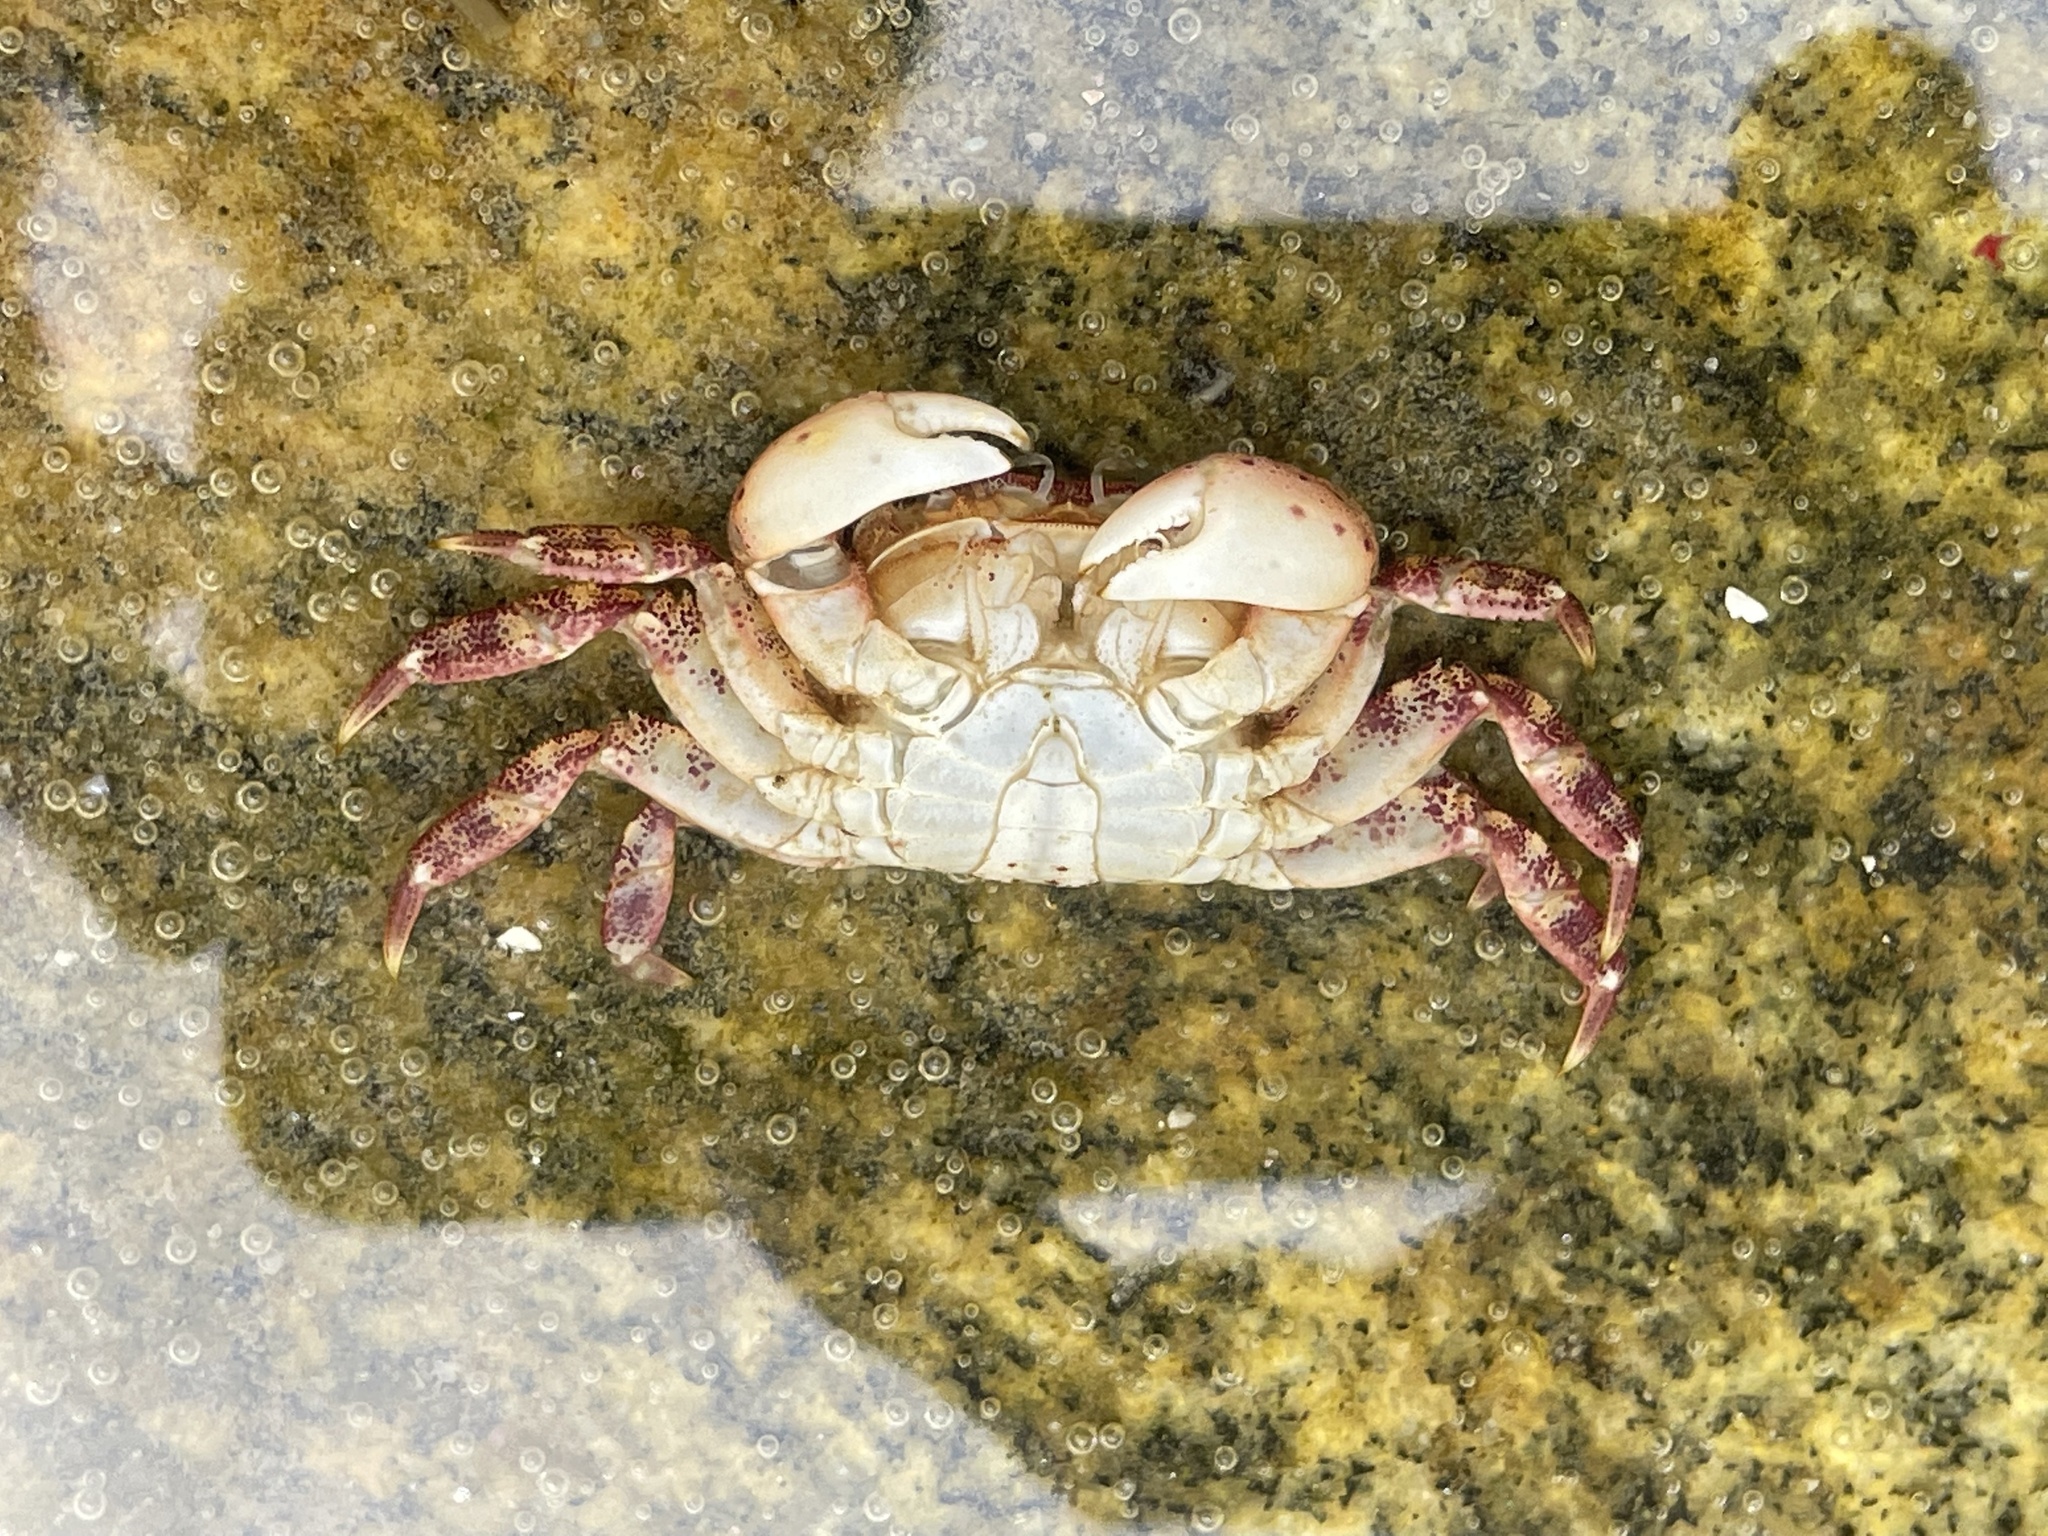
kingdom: Animalia
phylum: Arthropoda
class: Malacostraca
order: Decapoda
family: Varunidae
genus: Hemigrapsus
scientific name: Hemigrapsus sanguineus
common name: Asian shore crab
